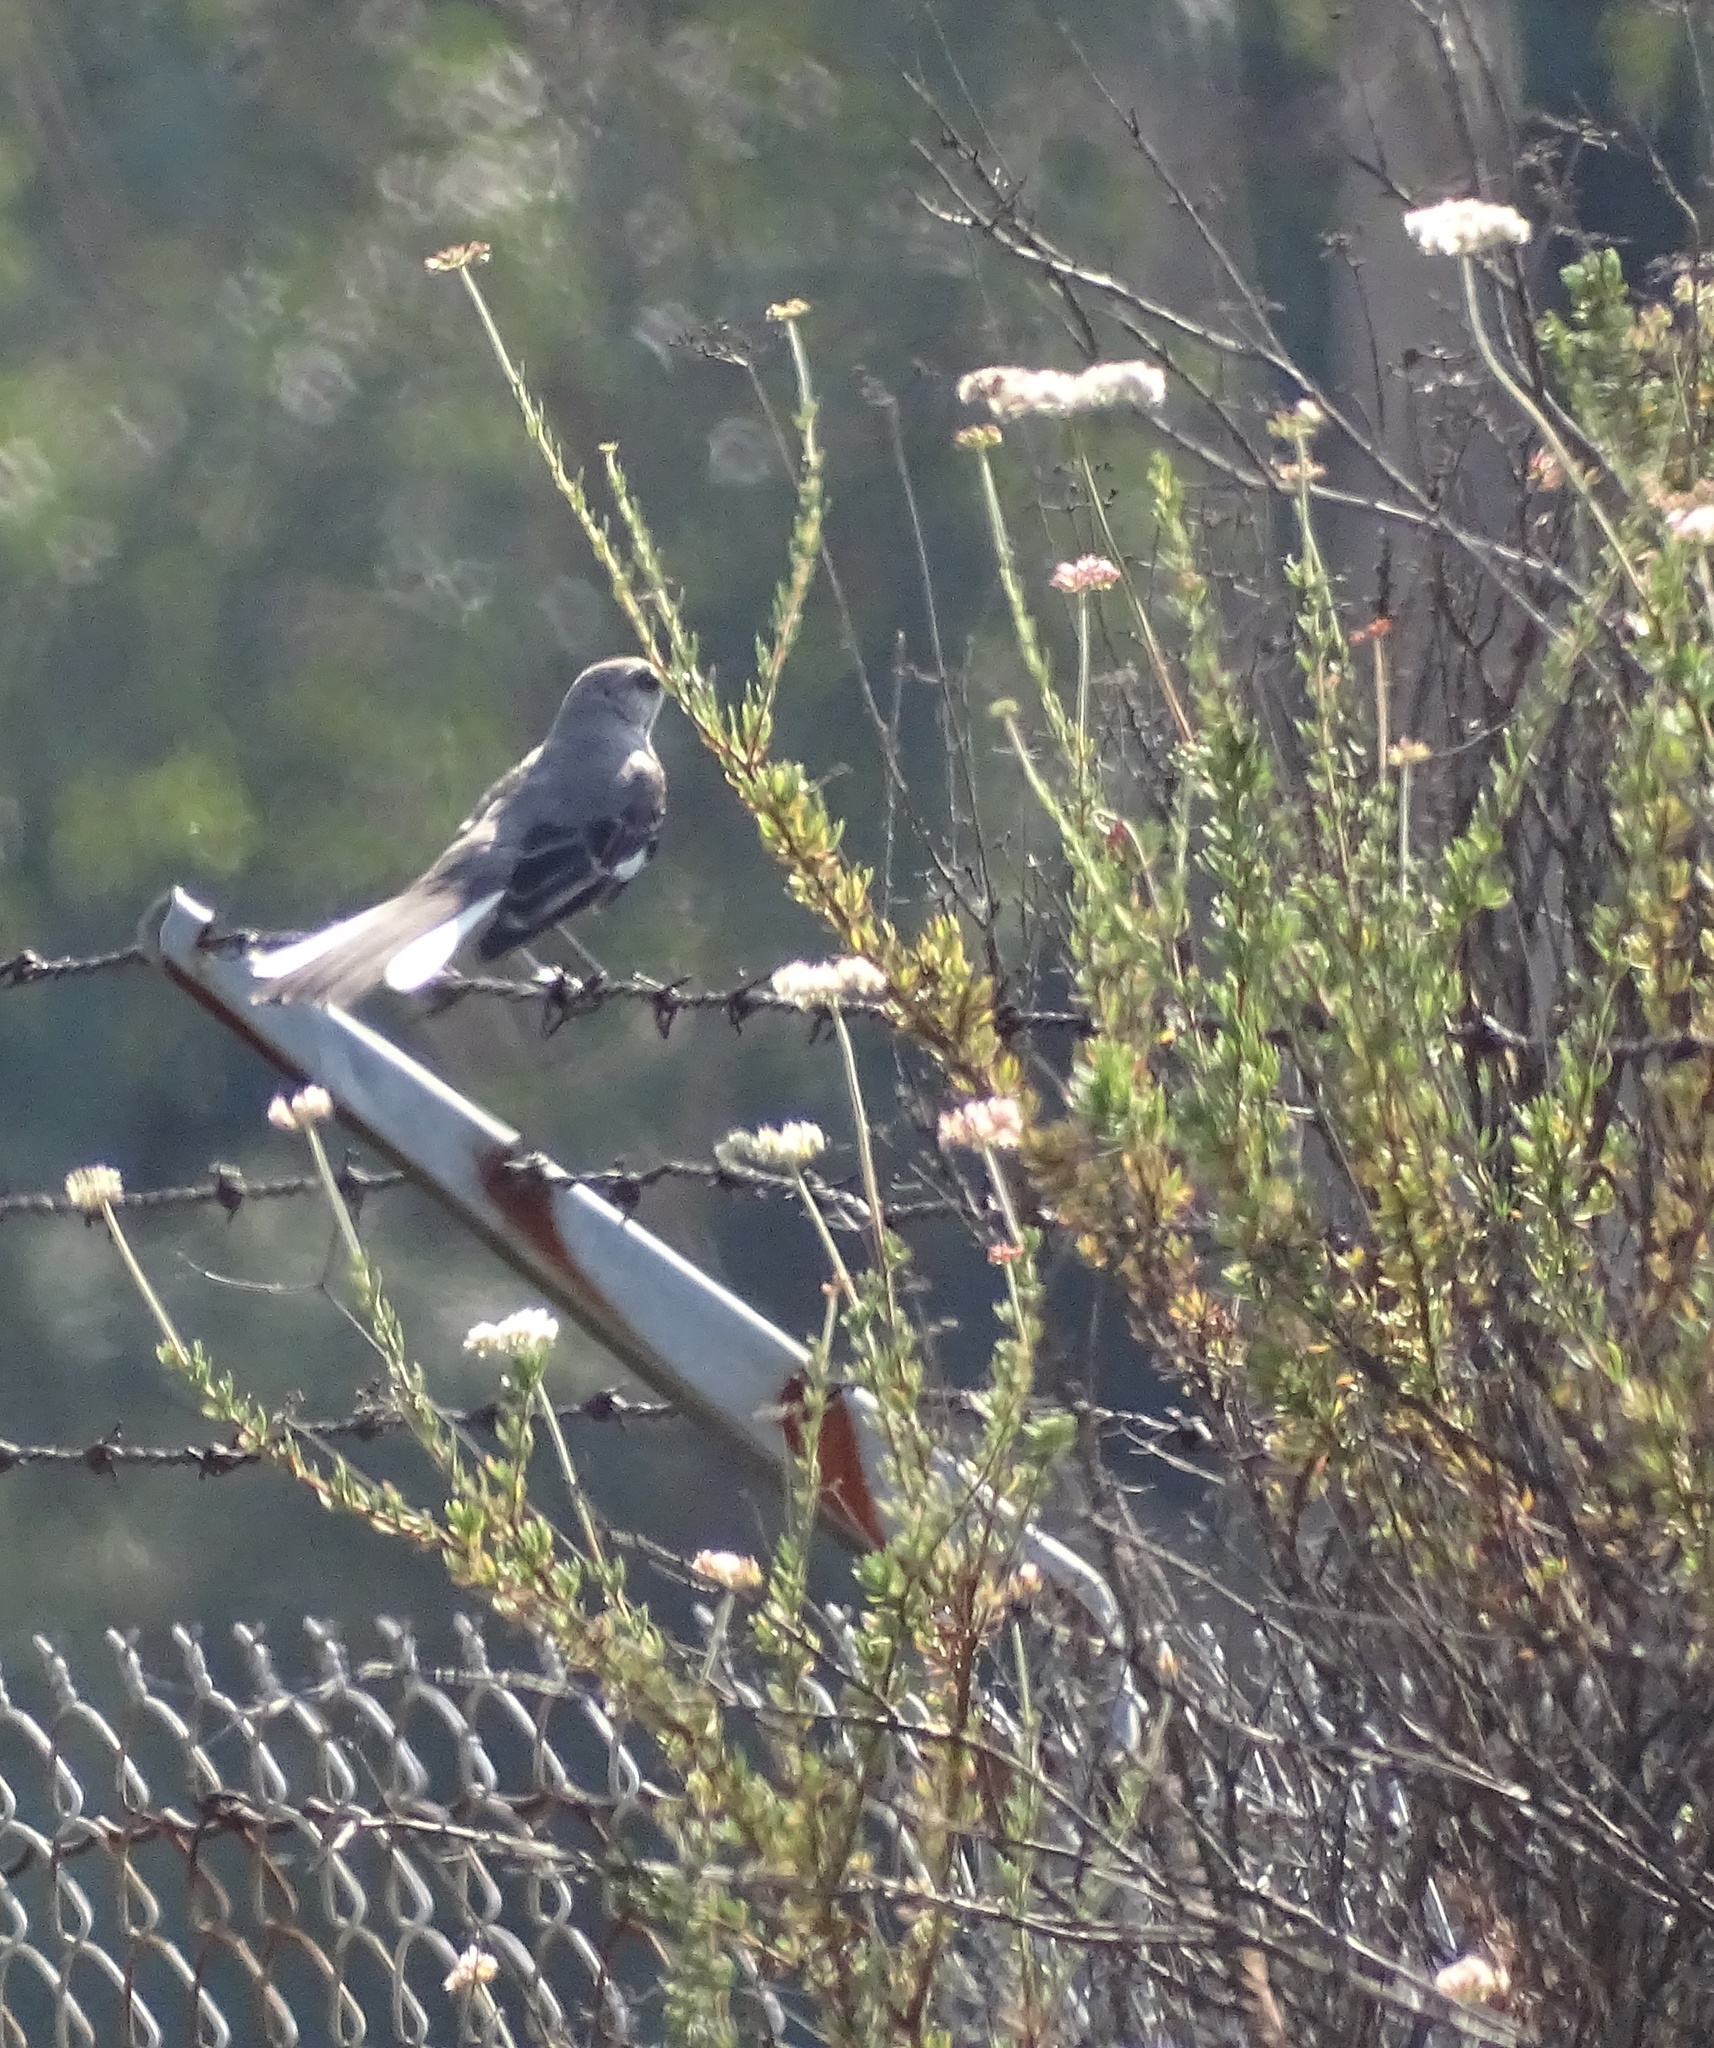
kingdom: Animalia
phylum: Chordata
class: Aves
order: Passeriformes
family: Mimidae
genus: Mimus
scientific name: Mimus polyglottos
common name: Northern mockingbird
